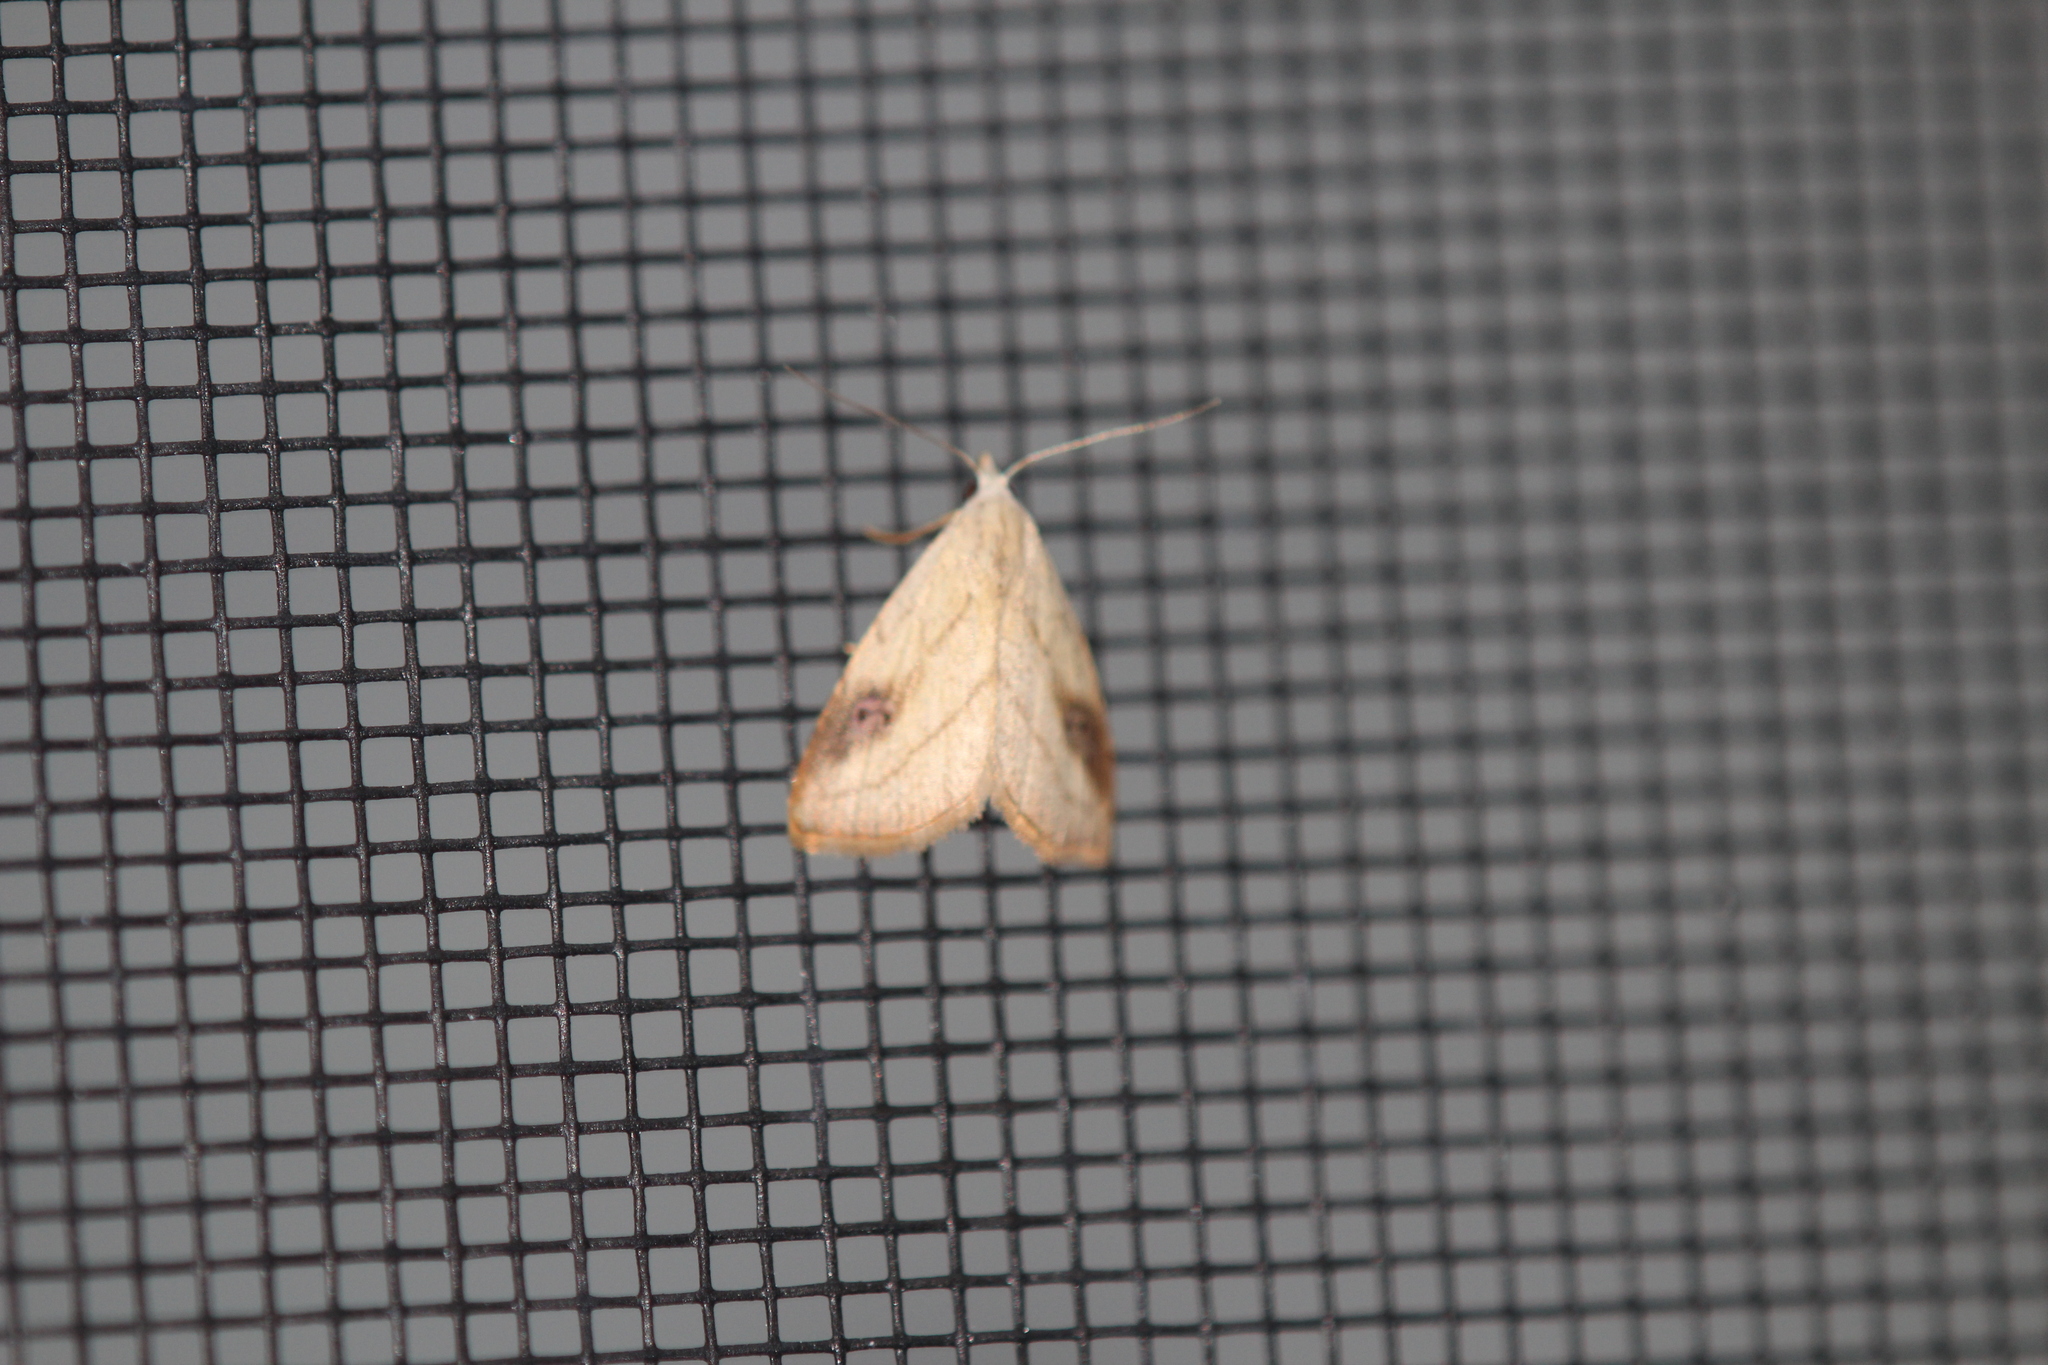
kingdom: Animalia
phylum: Arthropoda
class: Insecta
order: Lepidoptera
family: Erebidae
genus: Rivula
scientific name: Rivula propinqualis
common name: Spotted grass moth
